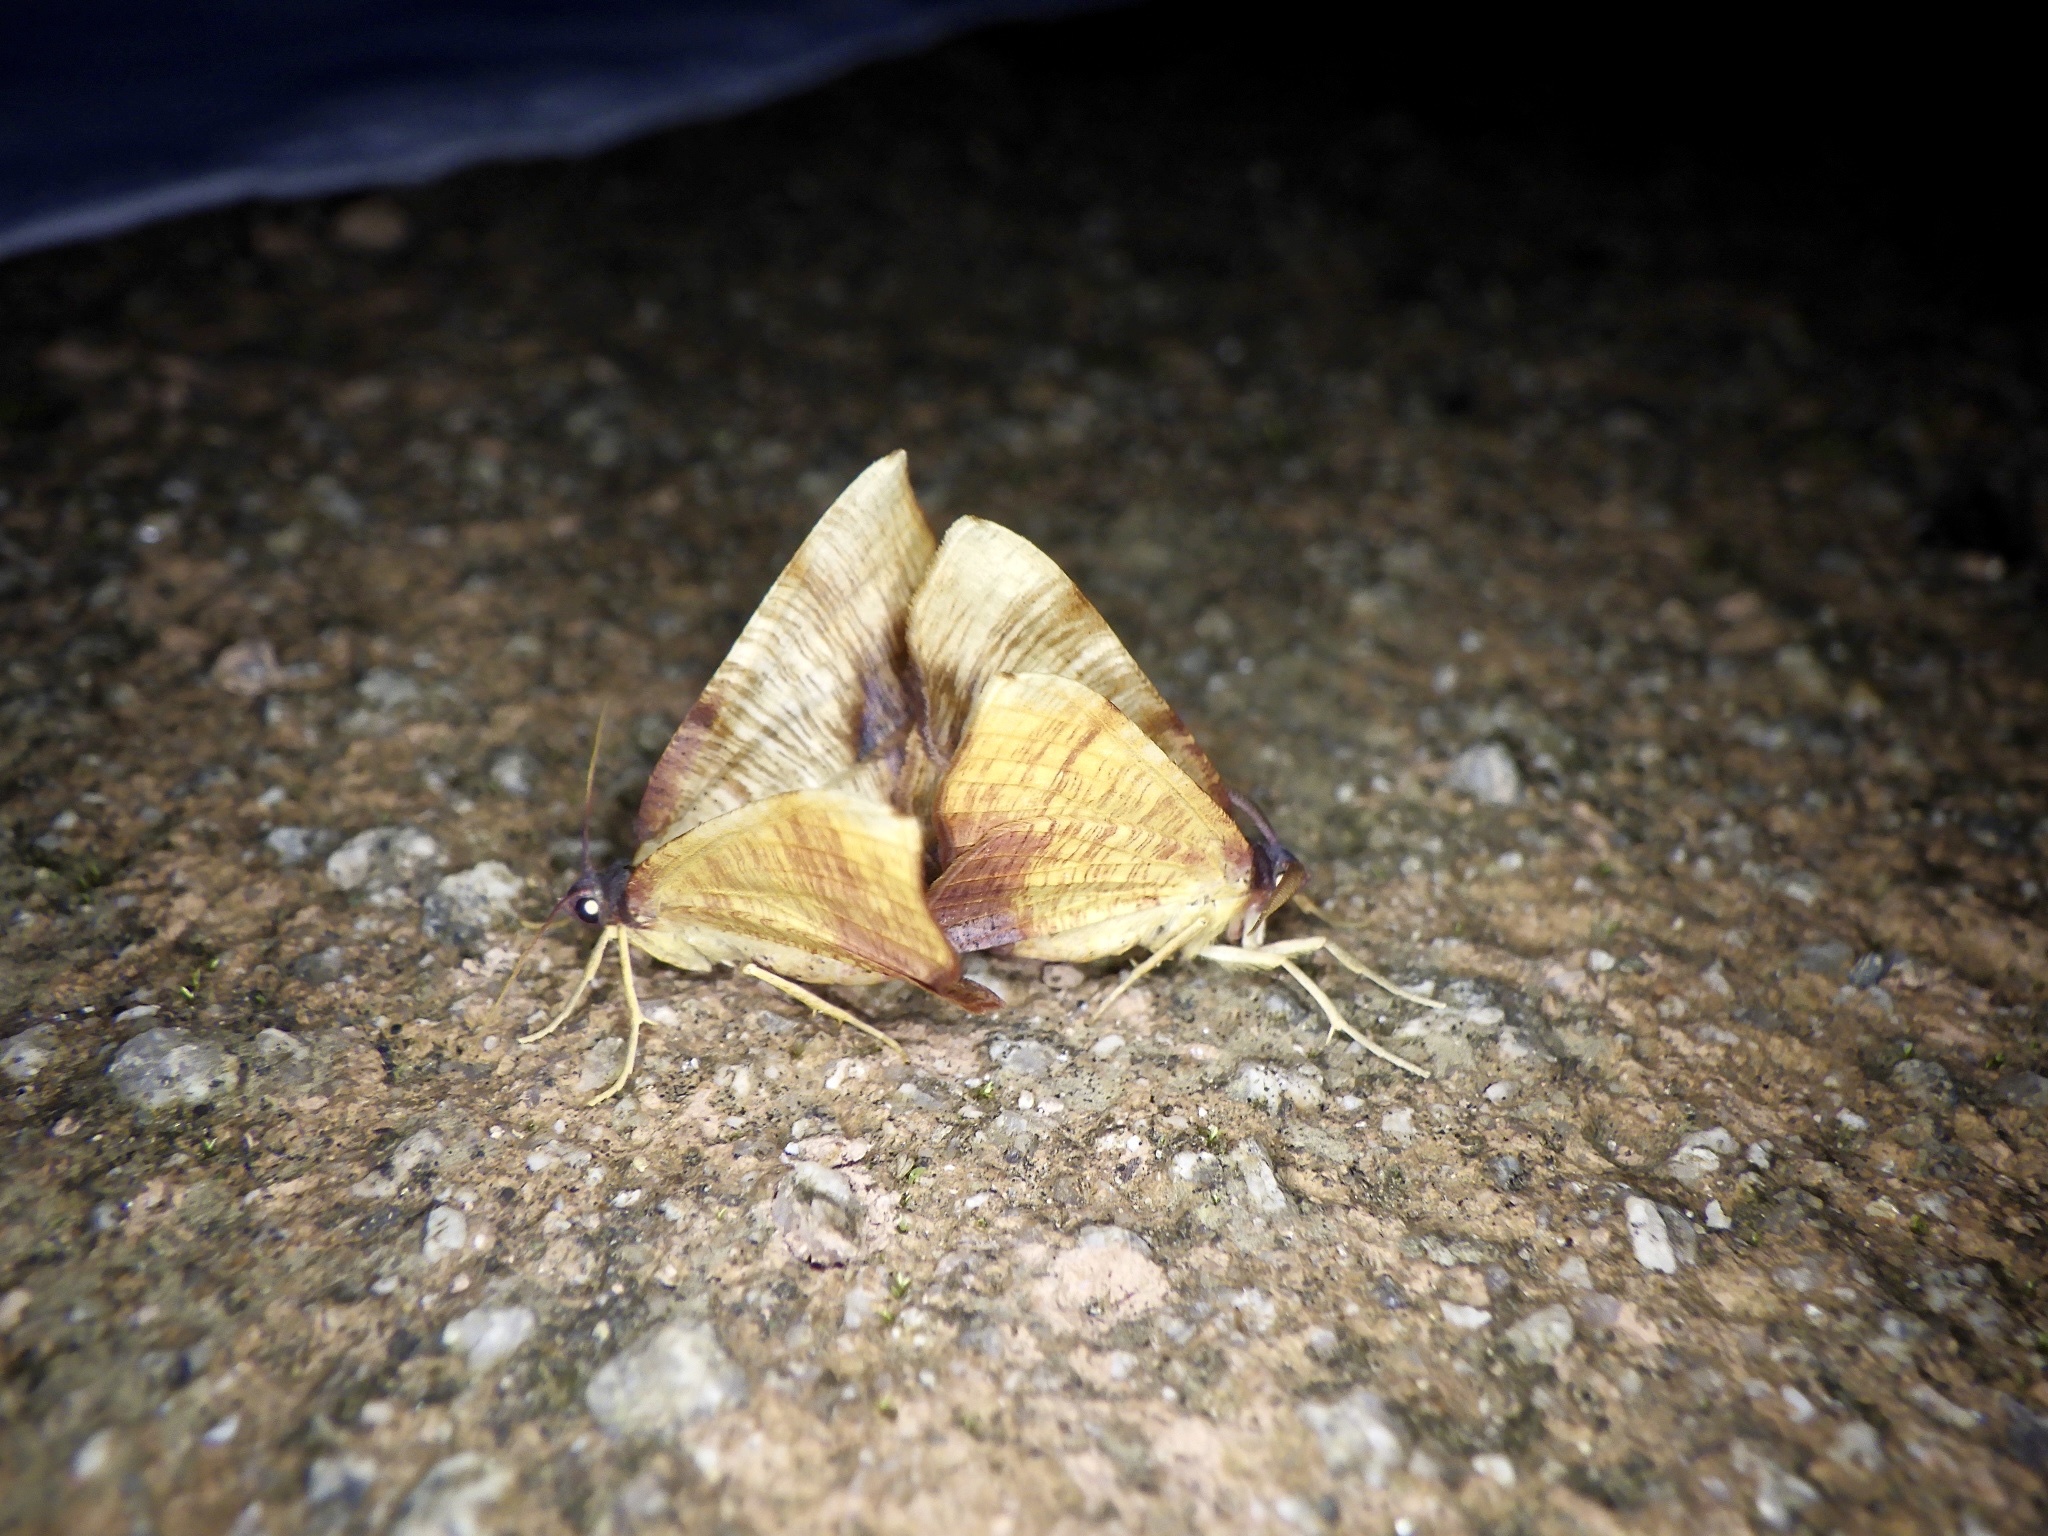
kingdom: Animalia
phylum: Arthropoda
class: Insecta
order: Lepidoptera
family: Geometridae
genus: Plagodis
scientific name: Plagodis dolabraria
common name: Scorched wing
